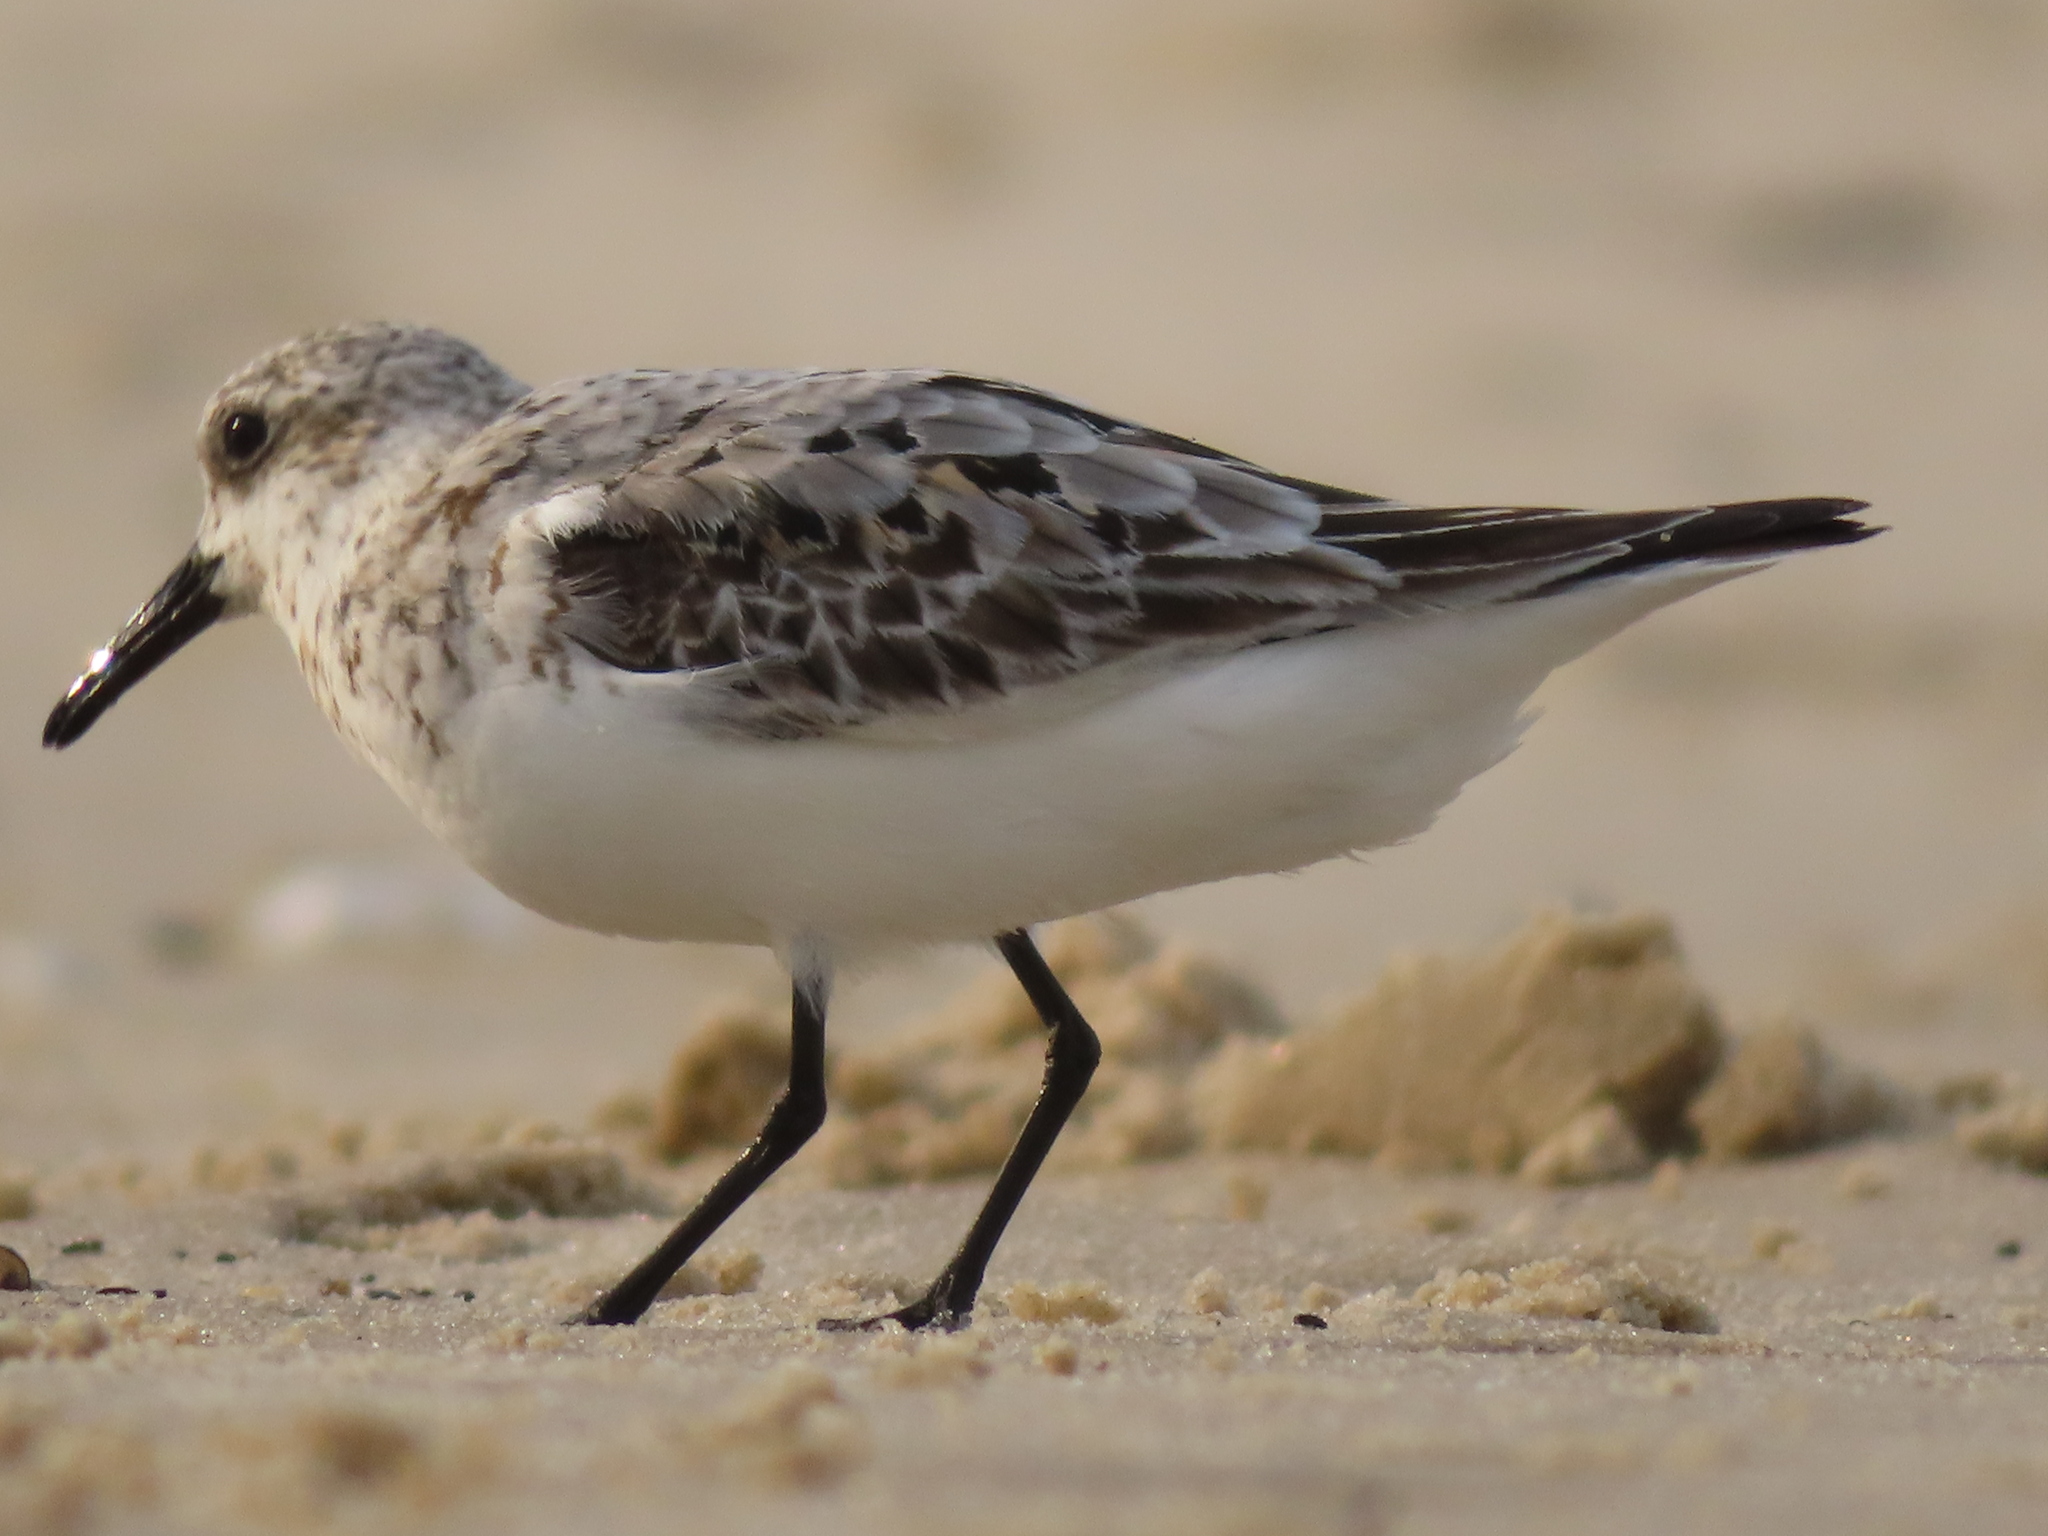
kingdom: Animalia
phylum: Chordata
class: Aves
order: Charadriiformes
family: Scolopacidae
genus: Calidris
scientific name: Calidris alba
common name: Sanderling
